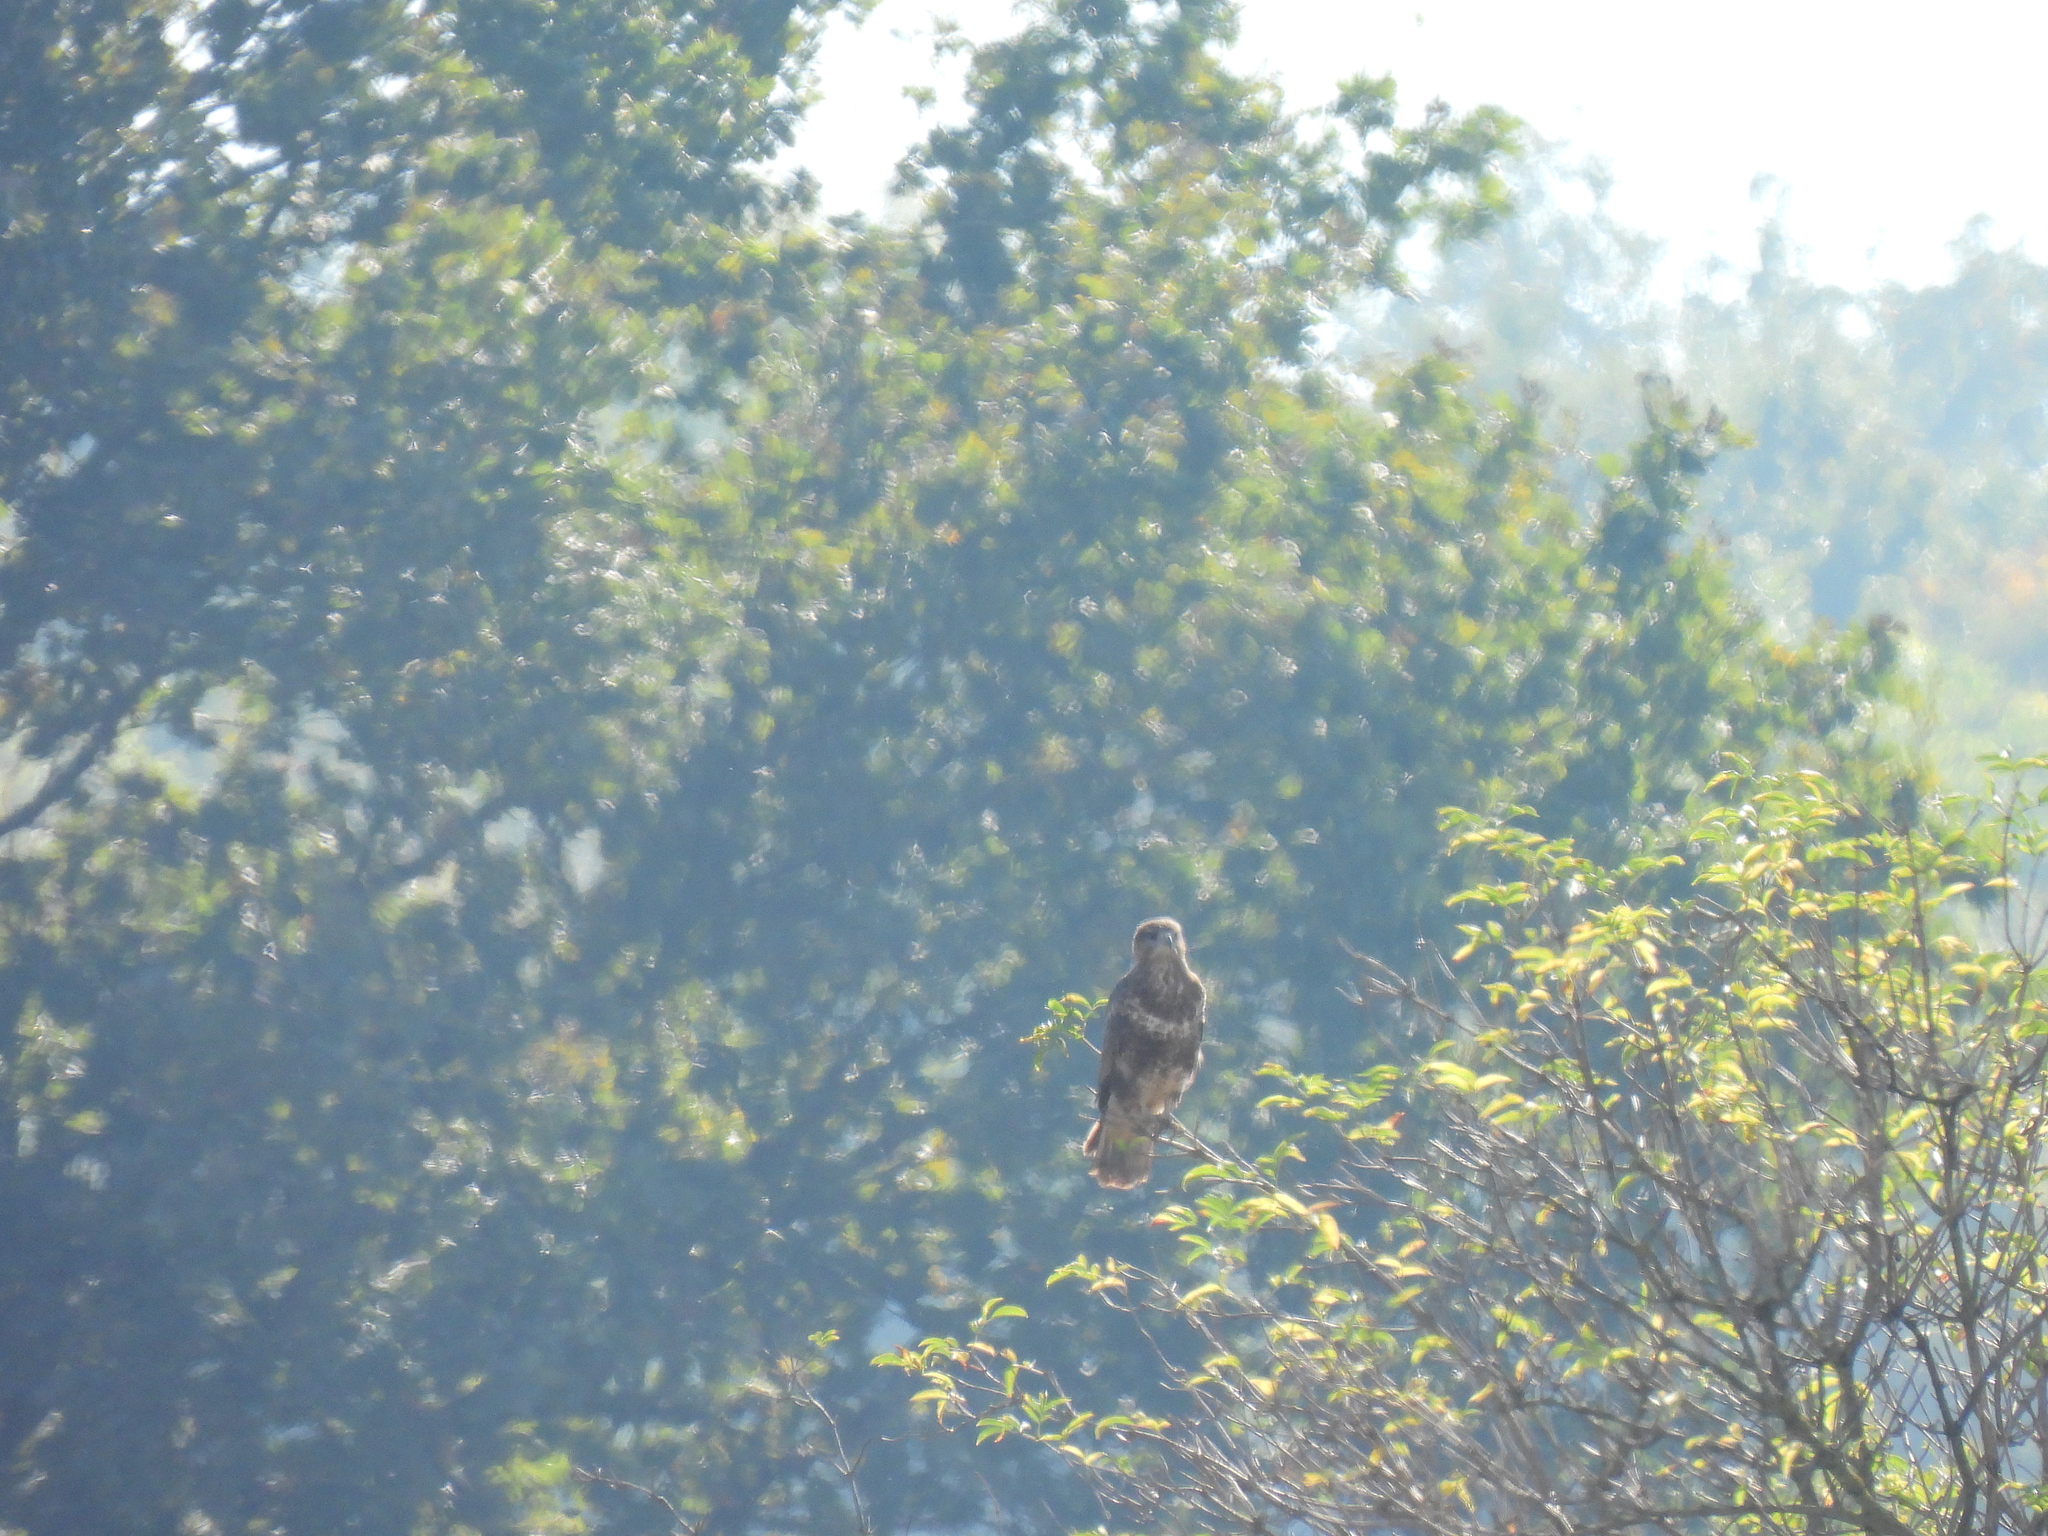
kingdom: Animalia
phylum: Chordata
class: Aves
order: Accipitriformes
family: Accipitridae
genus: Buteo
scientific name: Buteo buteo
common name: Common buzzard
